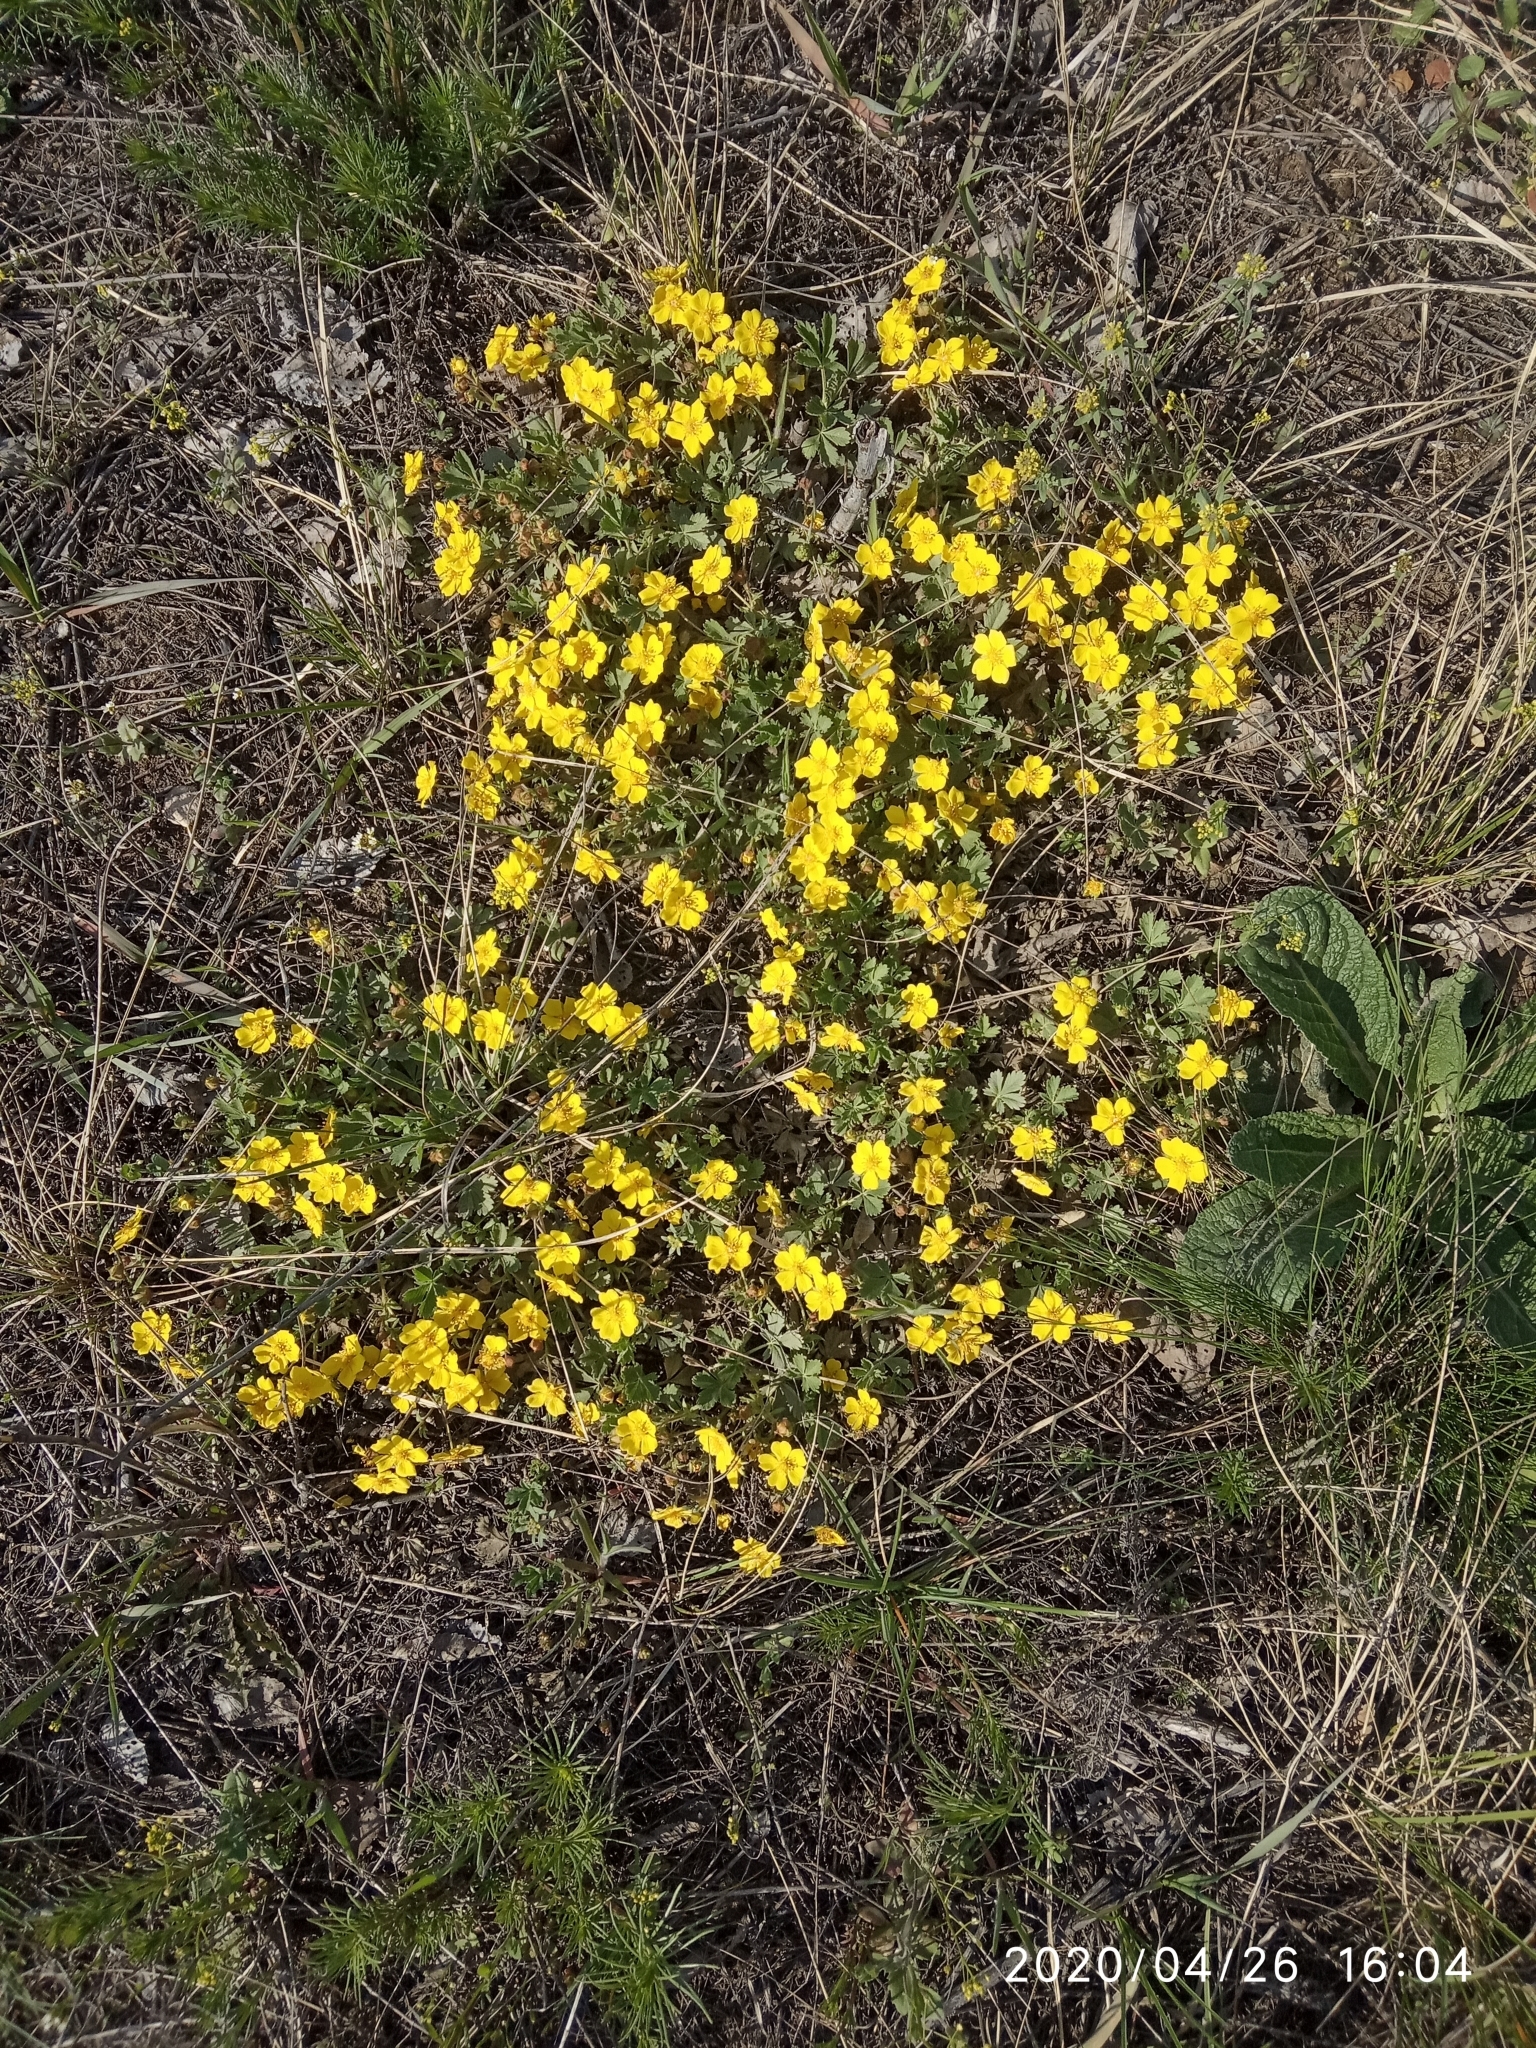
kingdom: Plantae
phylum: Tracheophyta
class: Magnoliopsida
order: Rosales
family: Rosaceae
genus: Potentilla
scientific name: Potentilla incana
